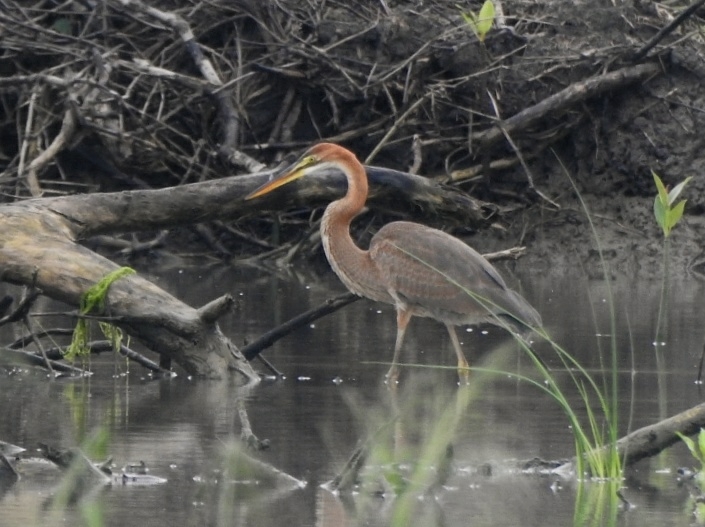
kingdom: Animalia
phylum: Chordata
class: Aves
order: Pelecaniformes
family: Ardeidae
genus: Ardea
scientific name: Ardea purpurea
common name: Purple heron
